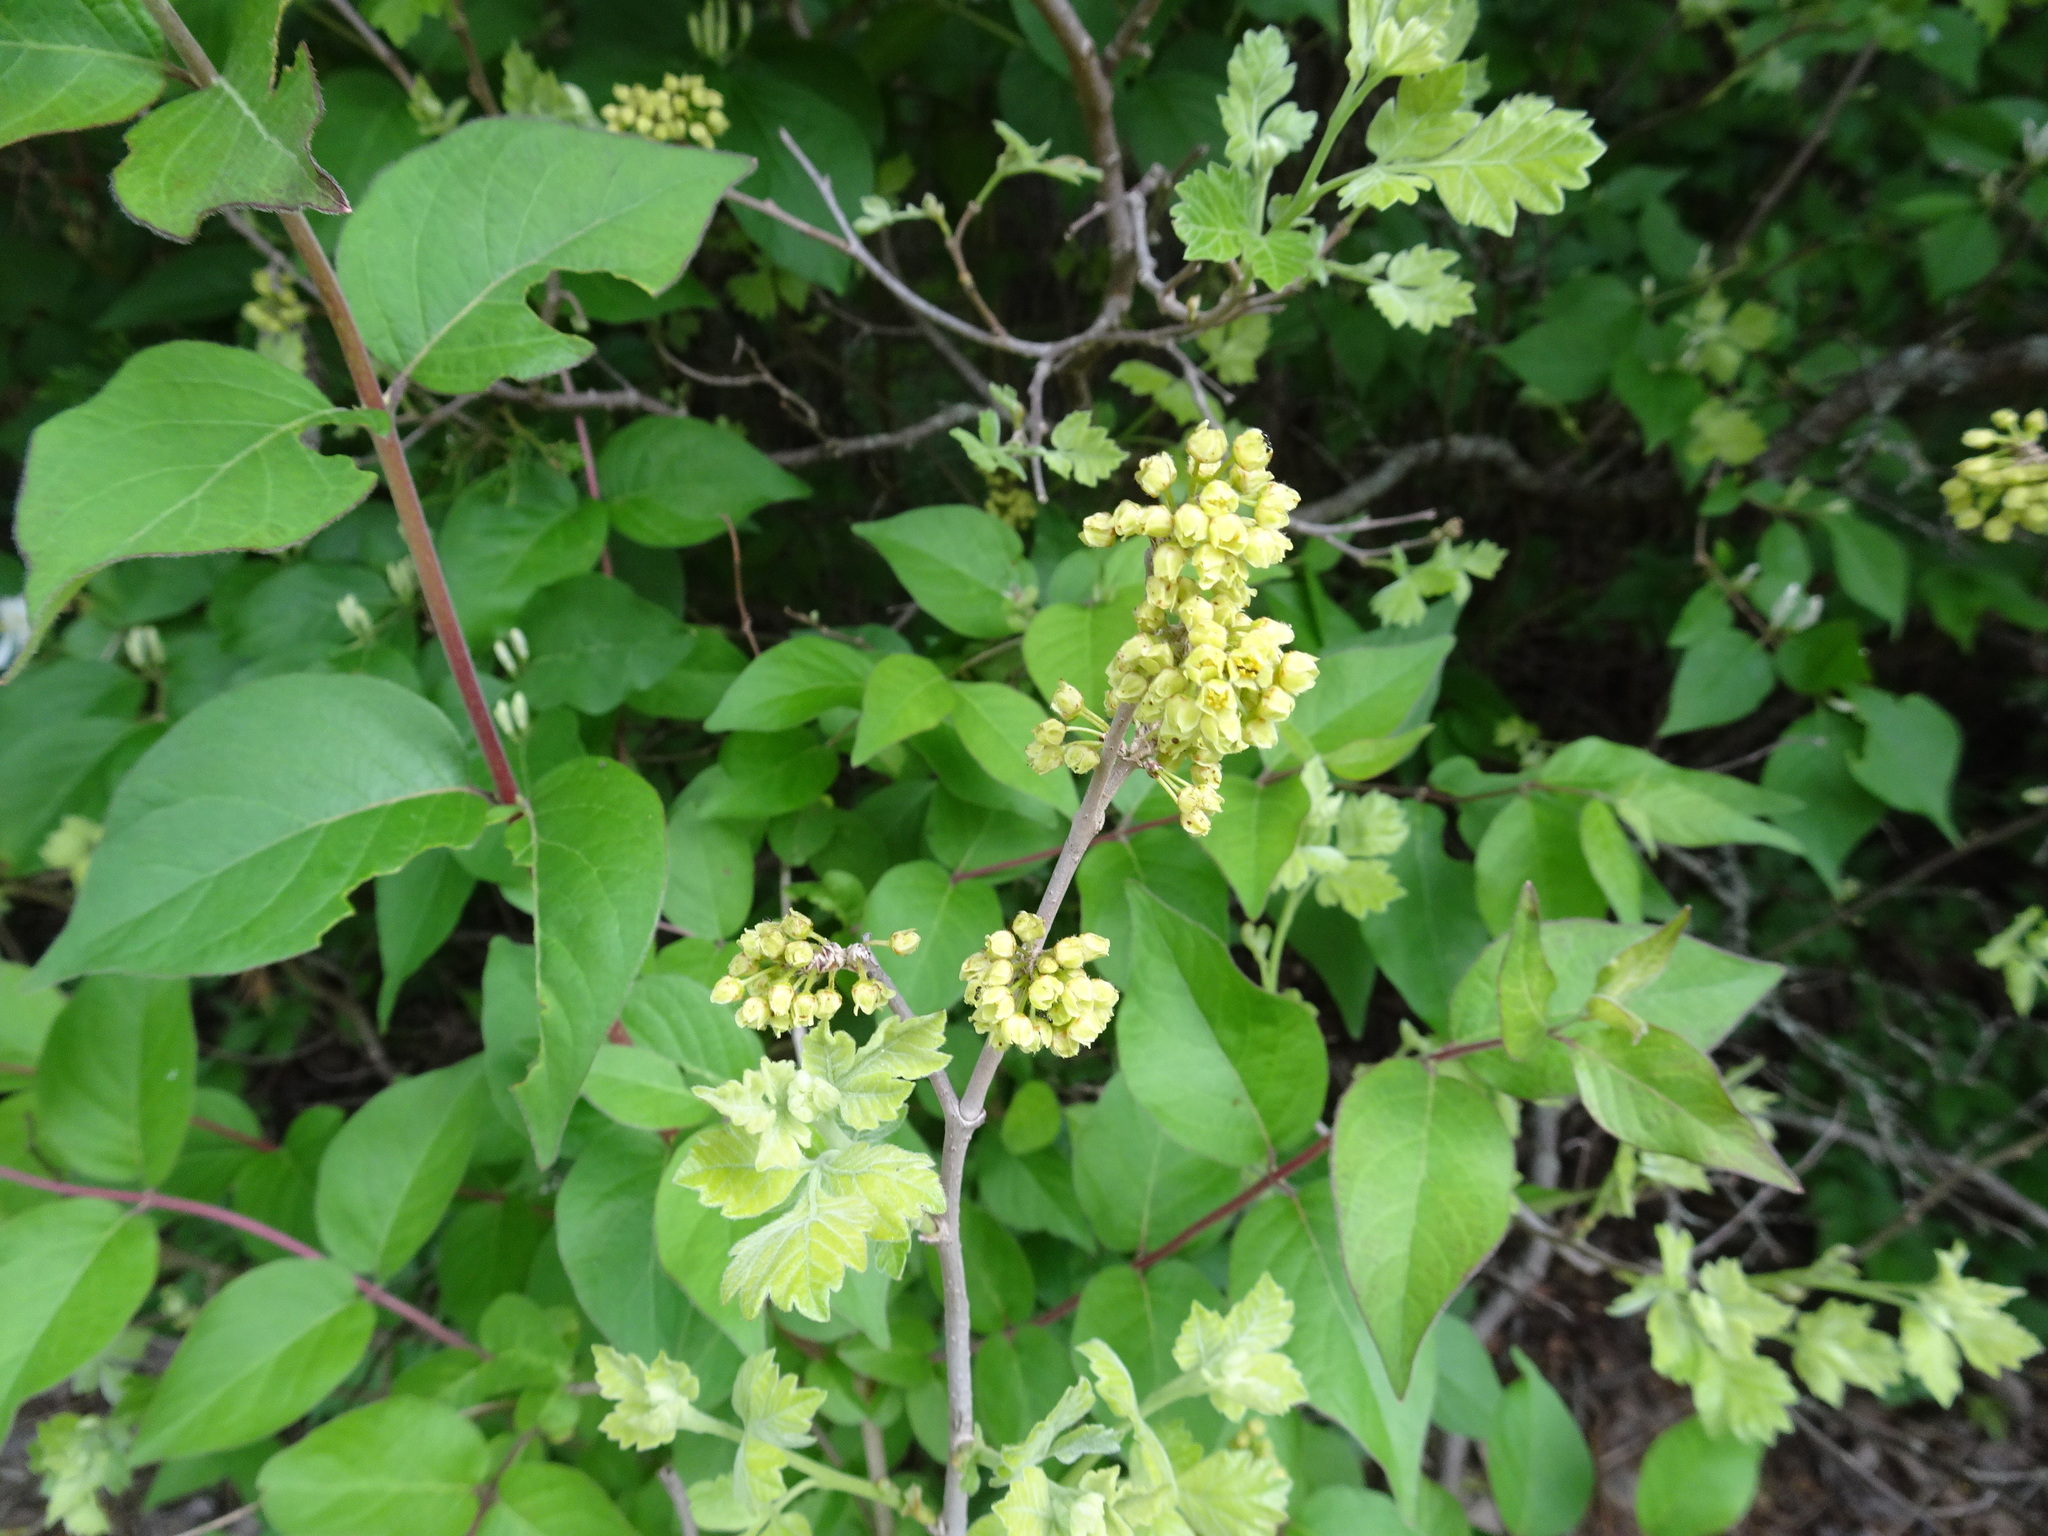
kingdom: Plantae
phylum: Tracheophyta
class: Magnoliopsida
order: Sapindales
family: Anacardiaceae
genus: Rhus
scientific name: Rhus aromatica
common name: Aromatic sumac
